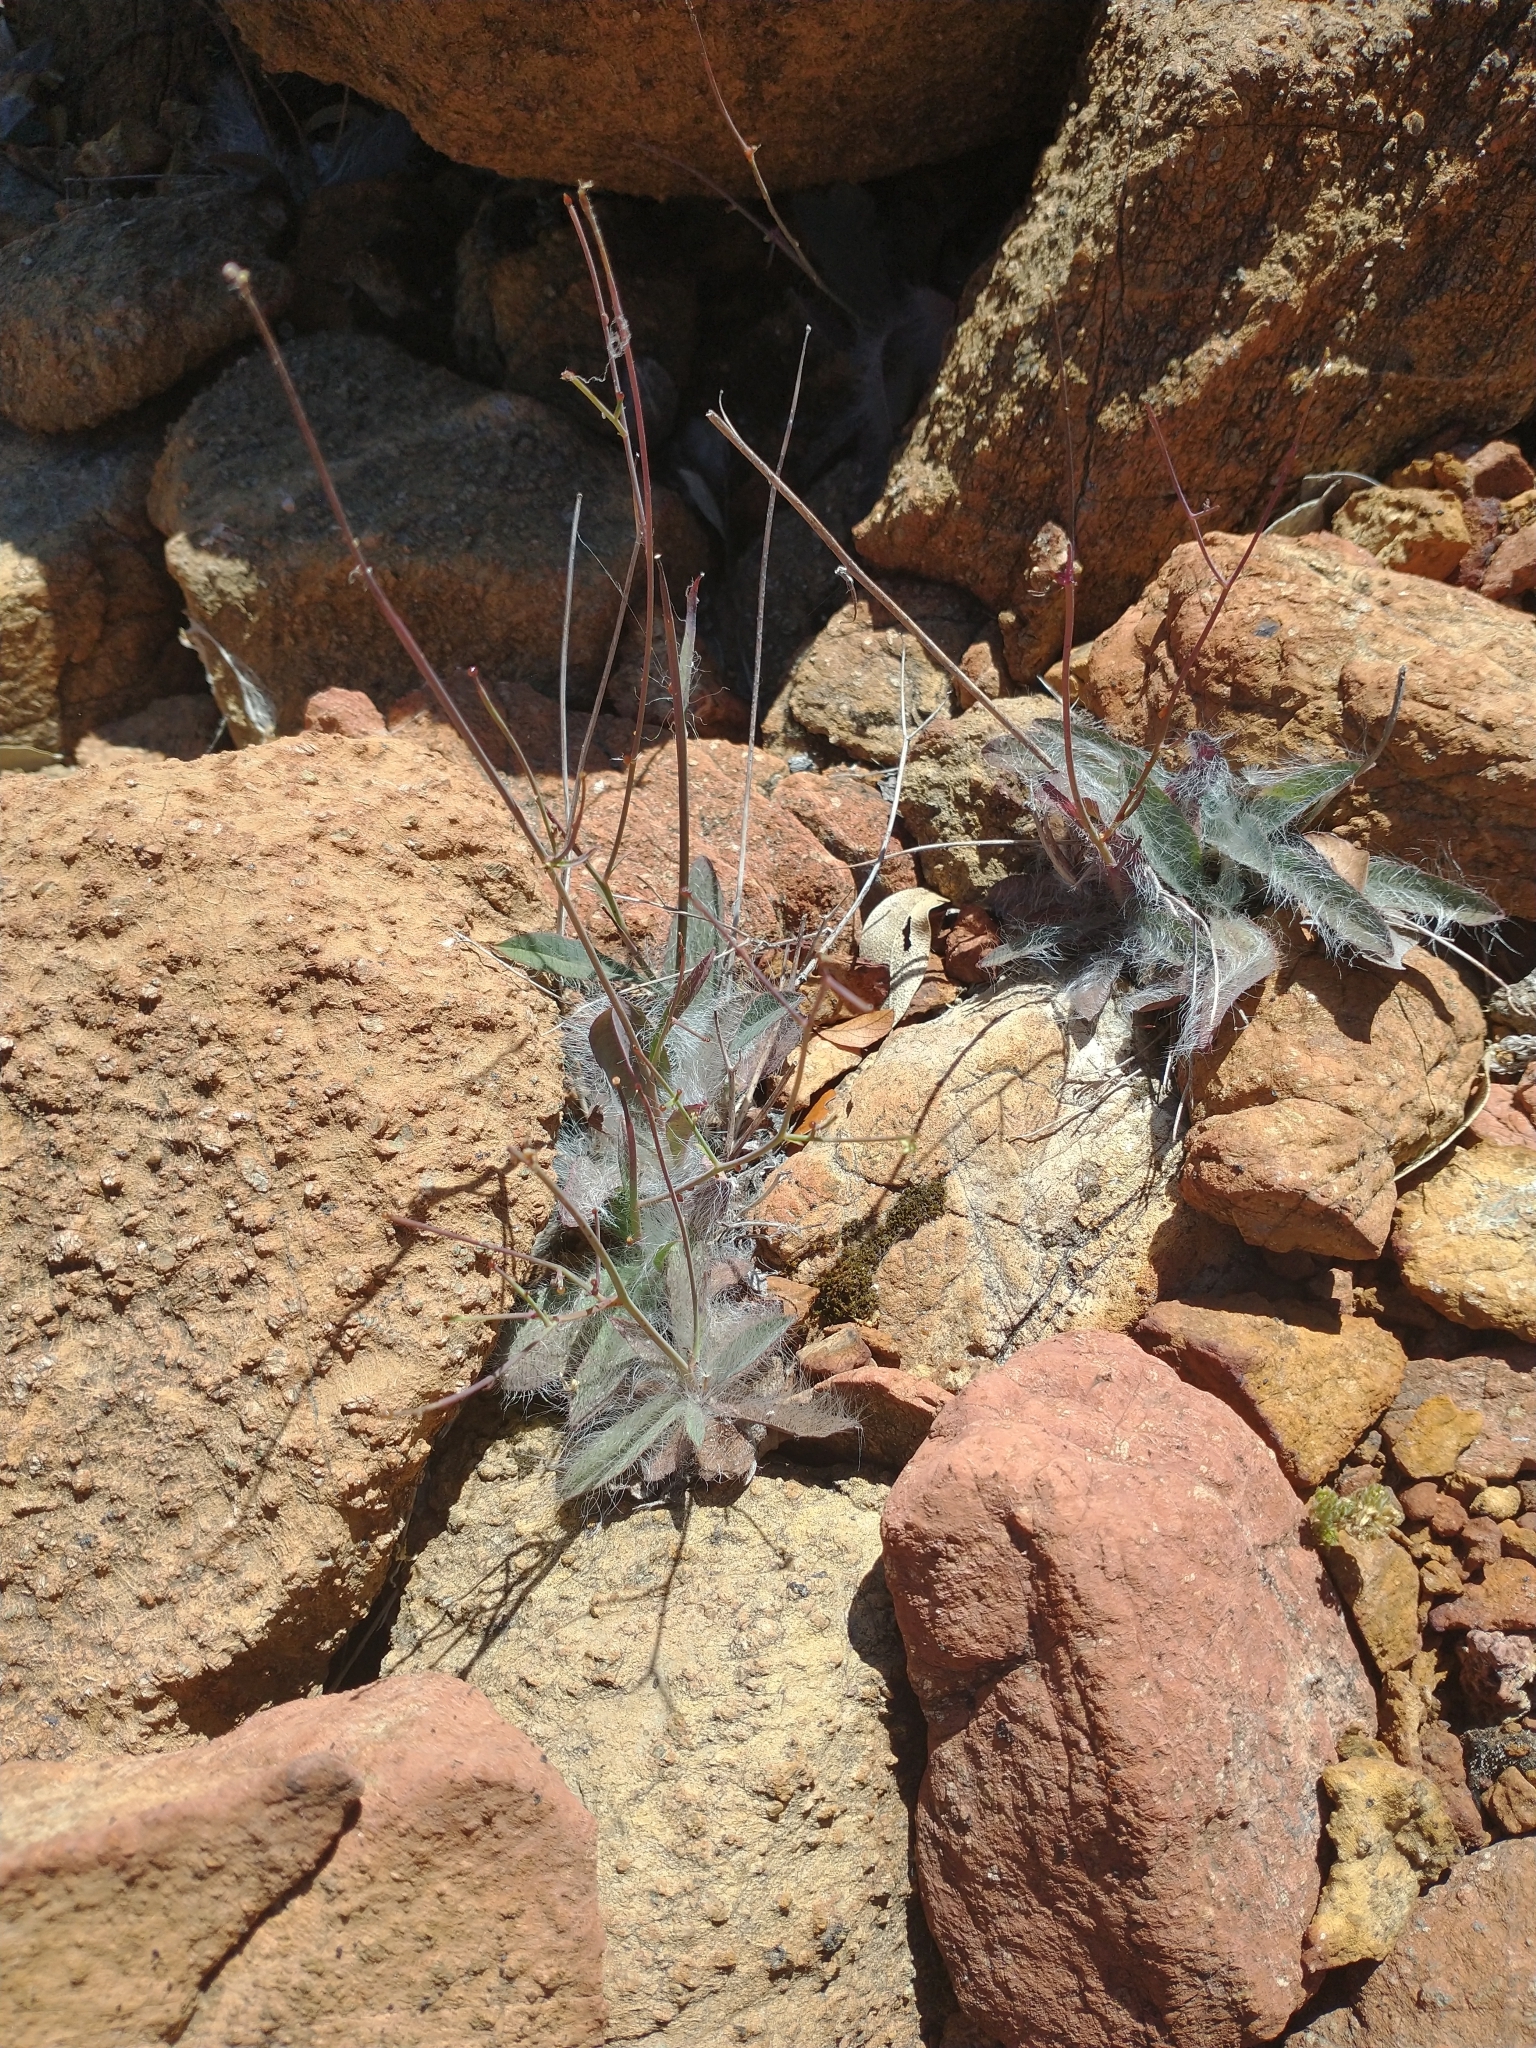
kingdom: Plantae
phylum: Tracheophyta
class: Magnoliopsida
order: Asterales
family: Asteraceae
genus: Hieracium
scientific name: Hieracium bolanderi
